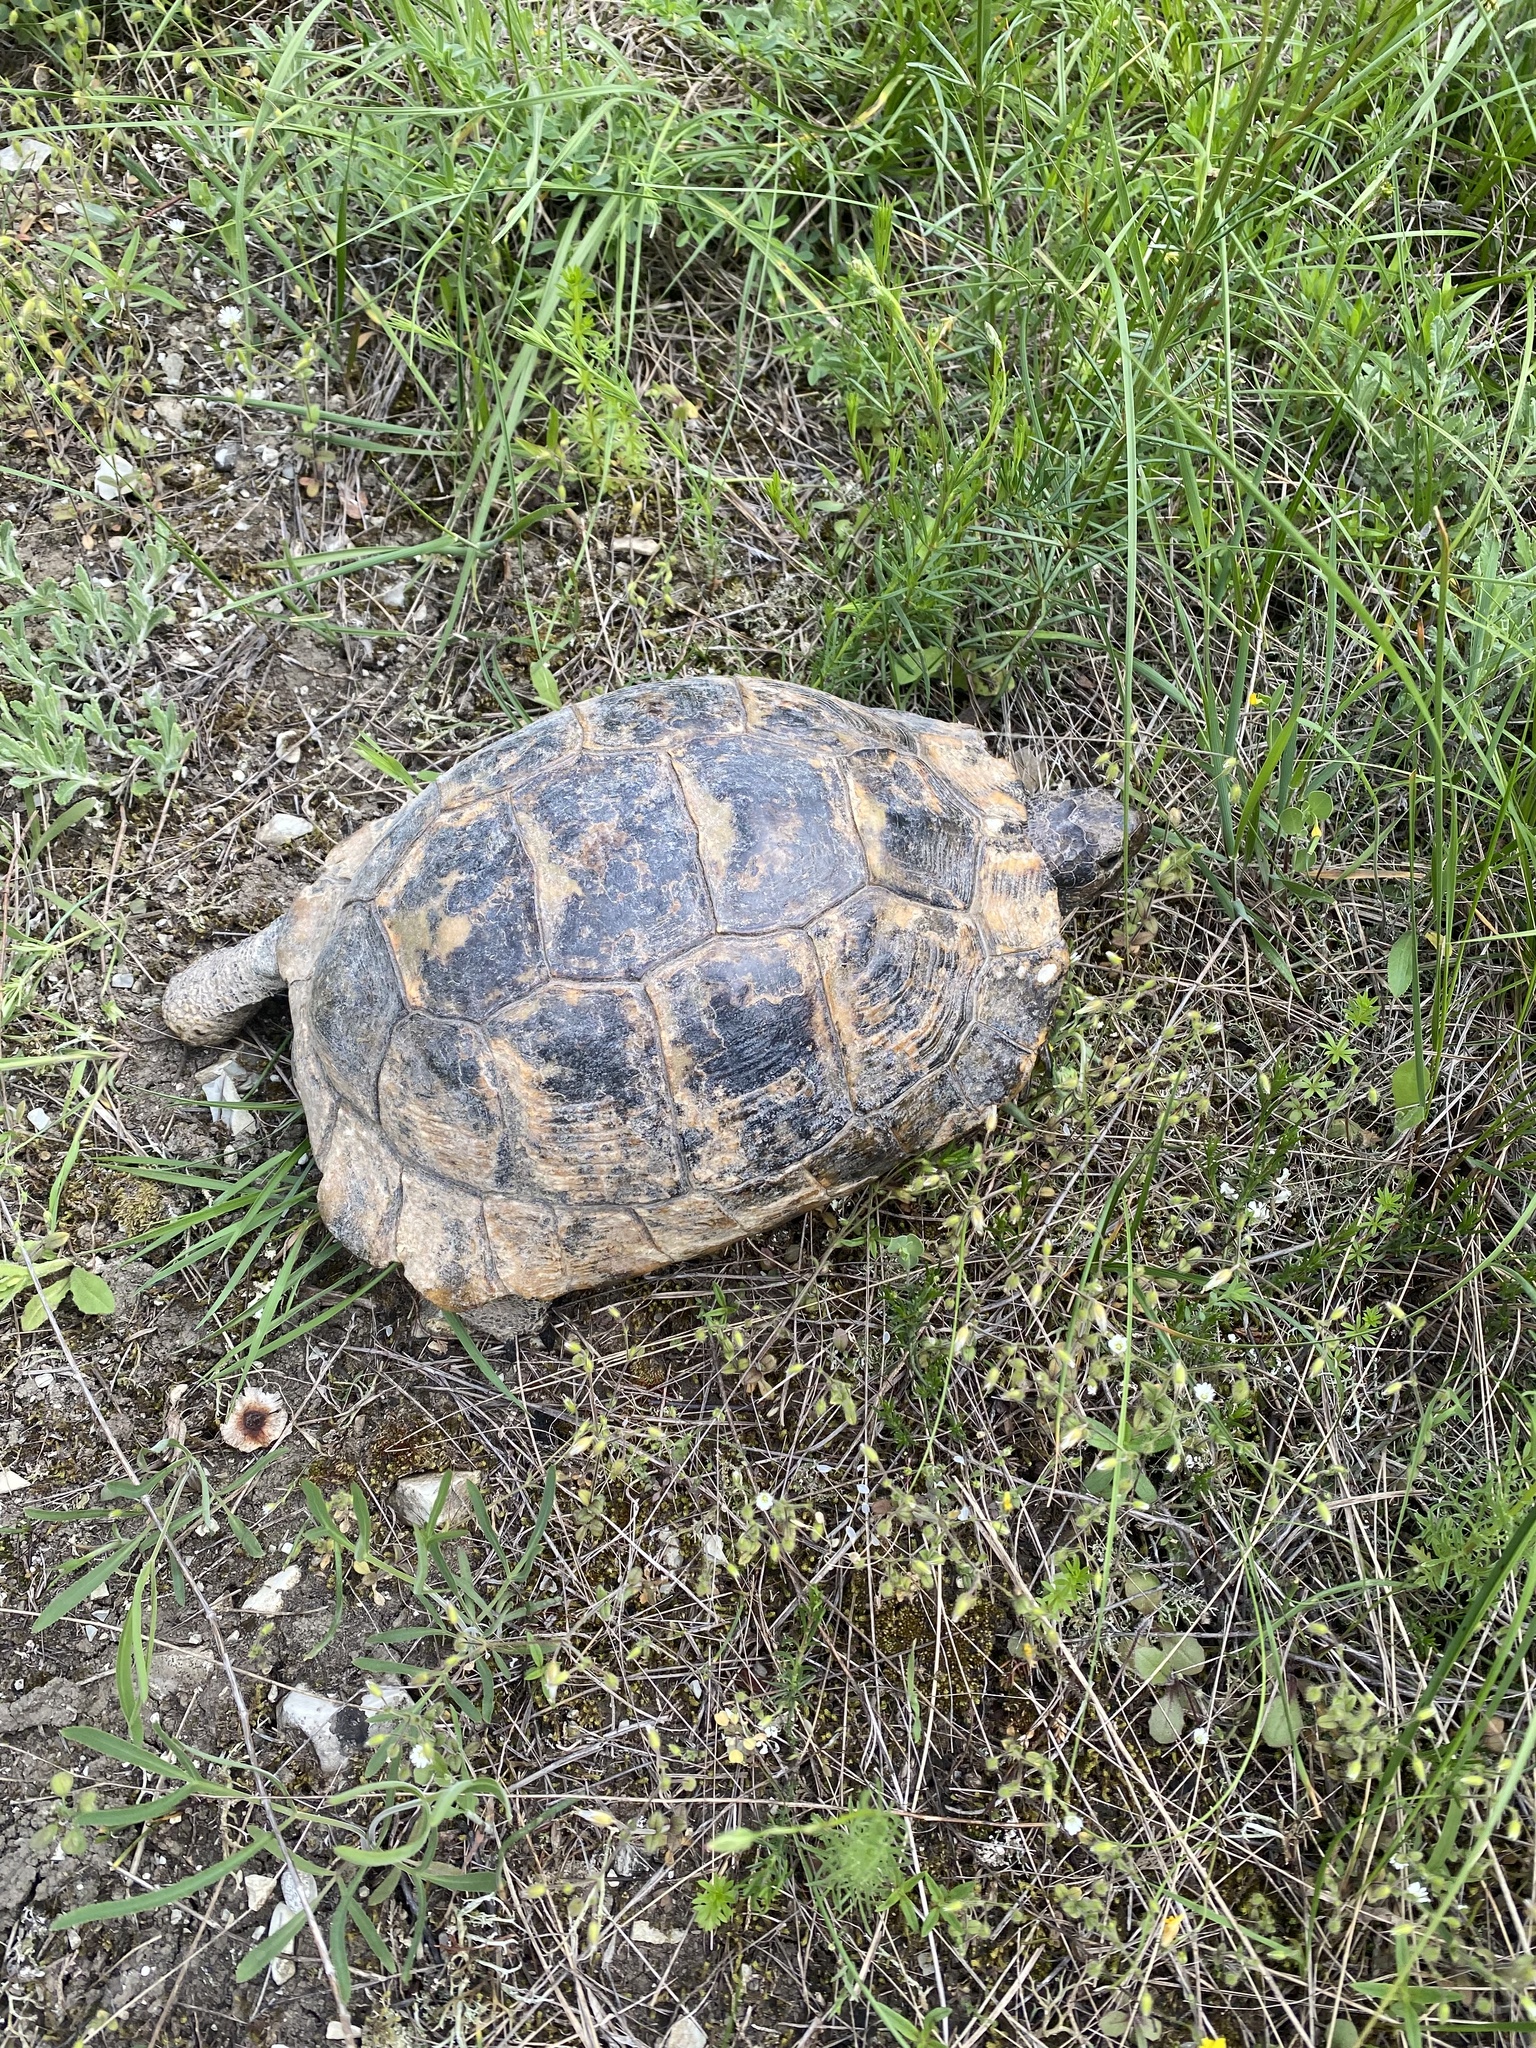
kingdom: Animalia
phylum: Chordata
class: Testudines
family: Testudinidae
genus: Testudo
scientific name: Testudo graeca
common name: Common tortoise
